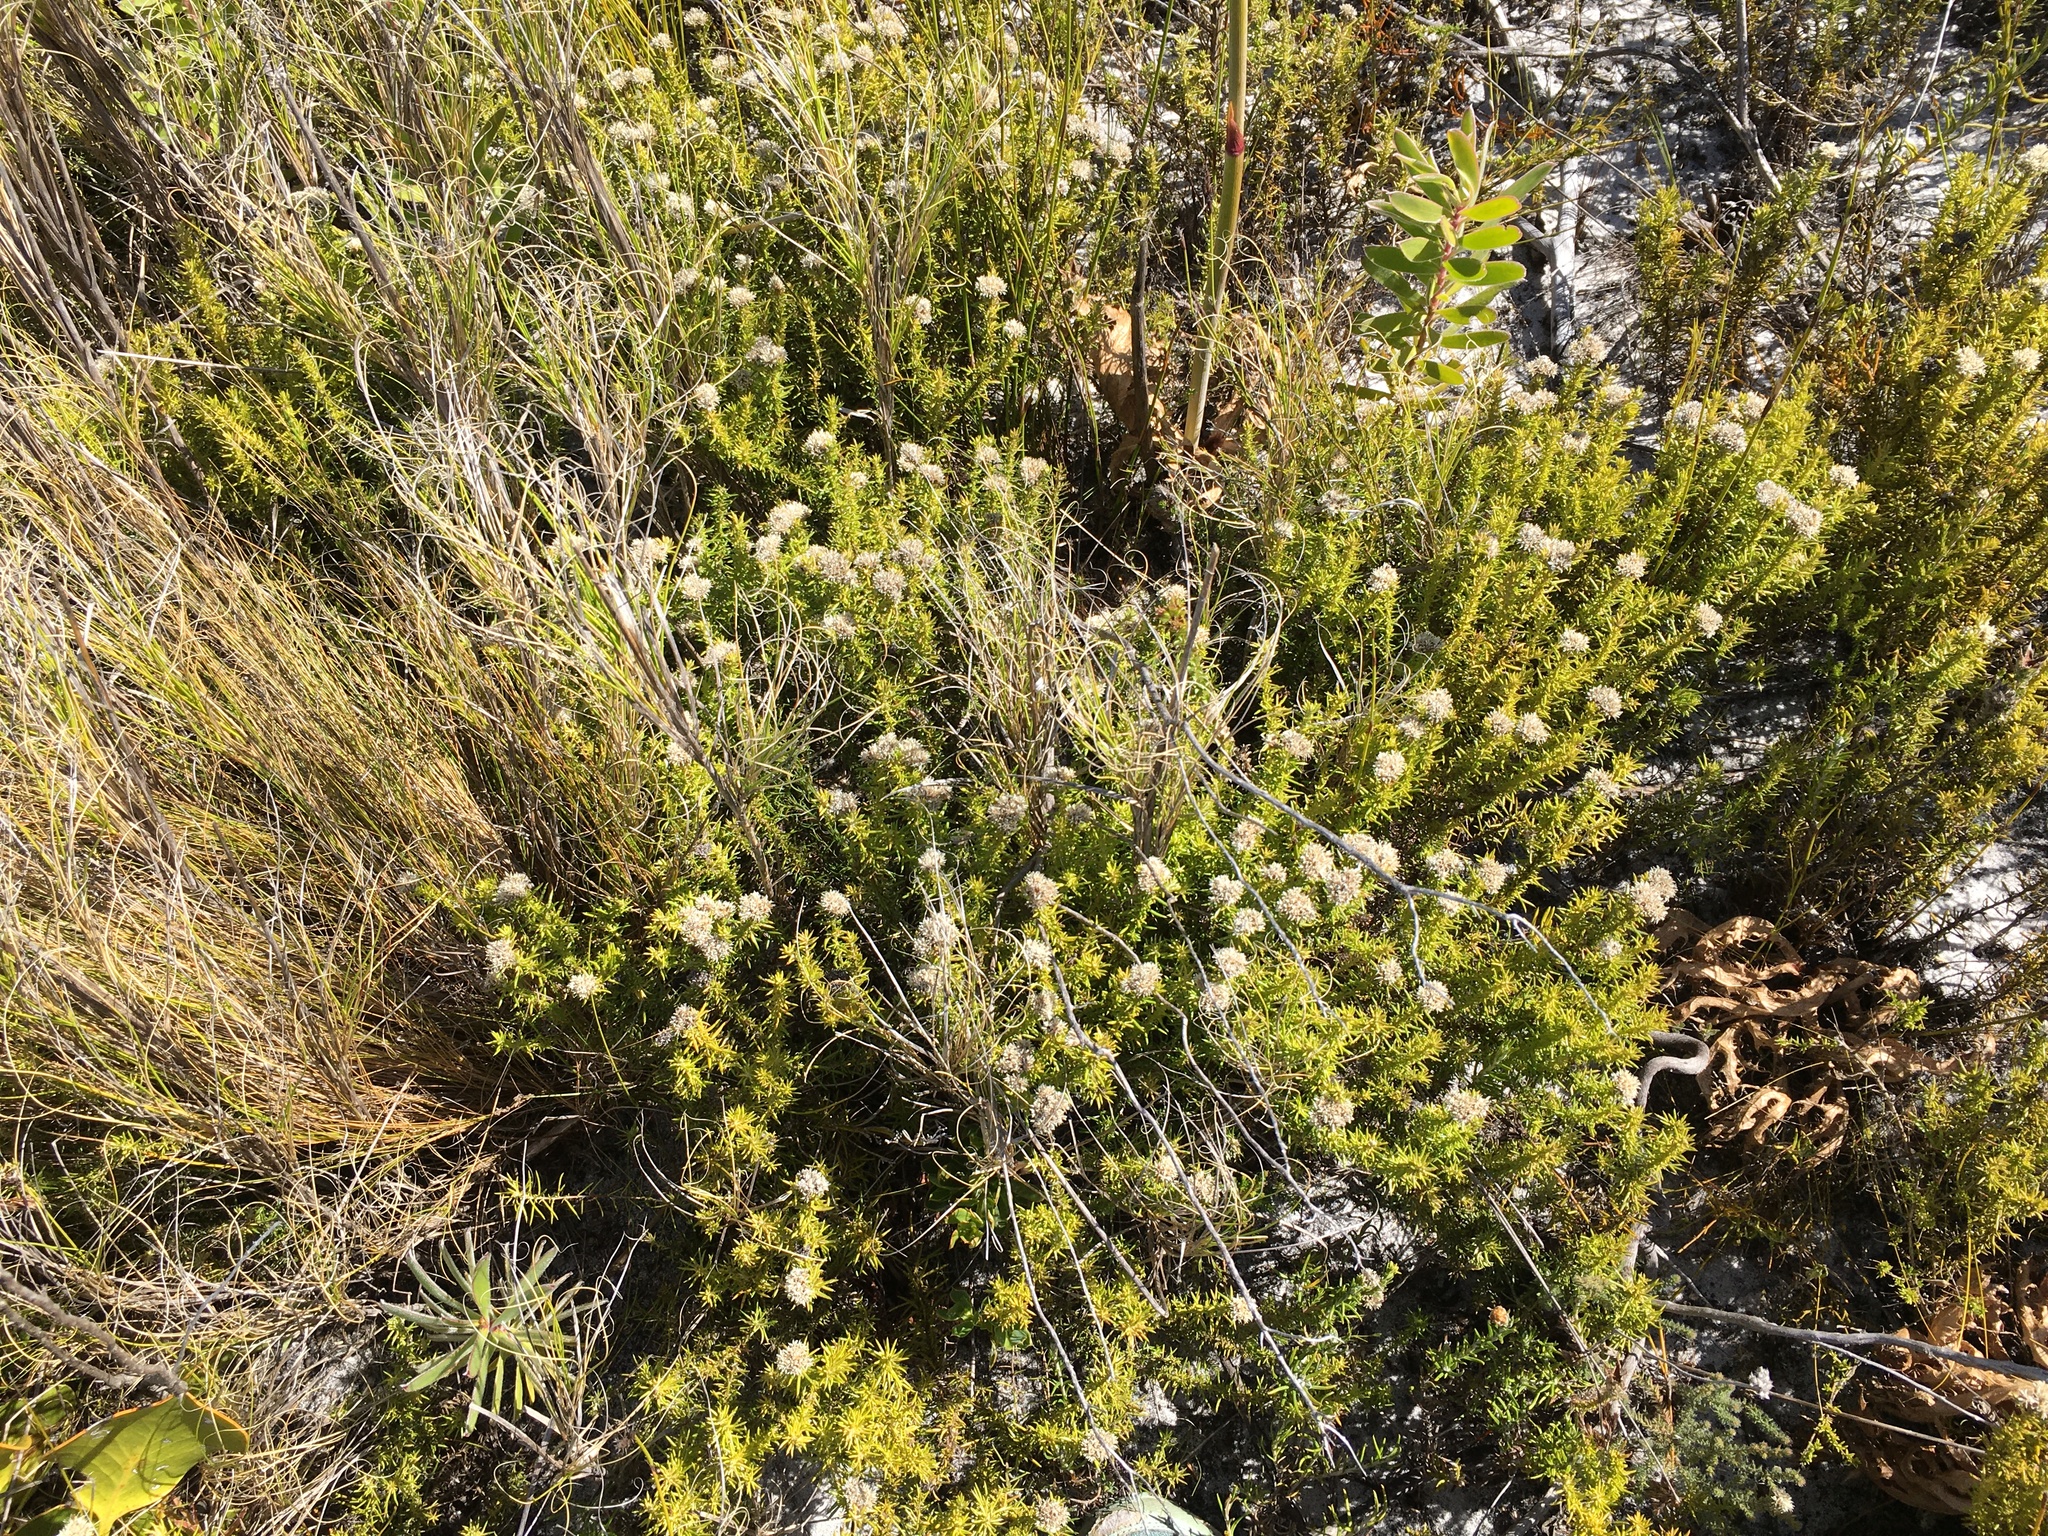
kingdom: Plantae
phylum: Tracheophyta
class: Magnoliopsida
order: Asterales
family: Asteraceae
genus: Metalasia
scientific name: Metalasia pulchella
